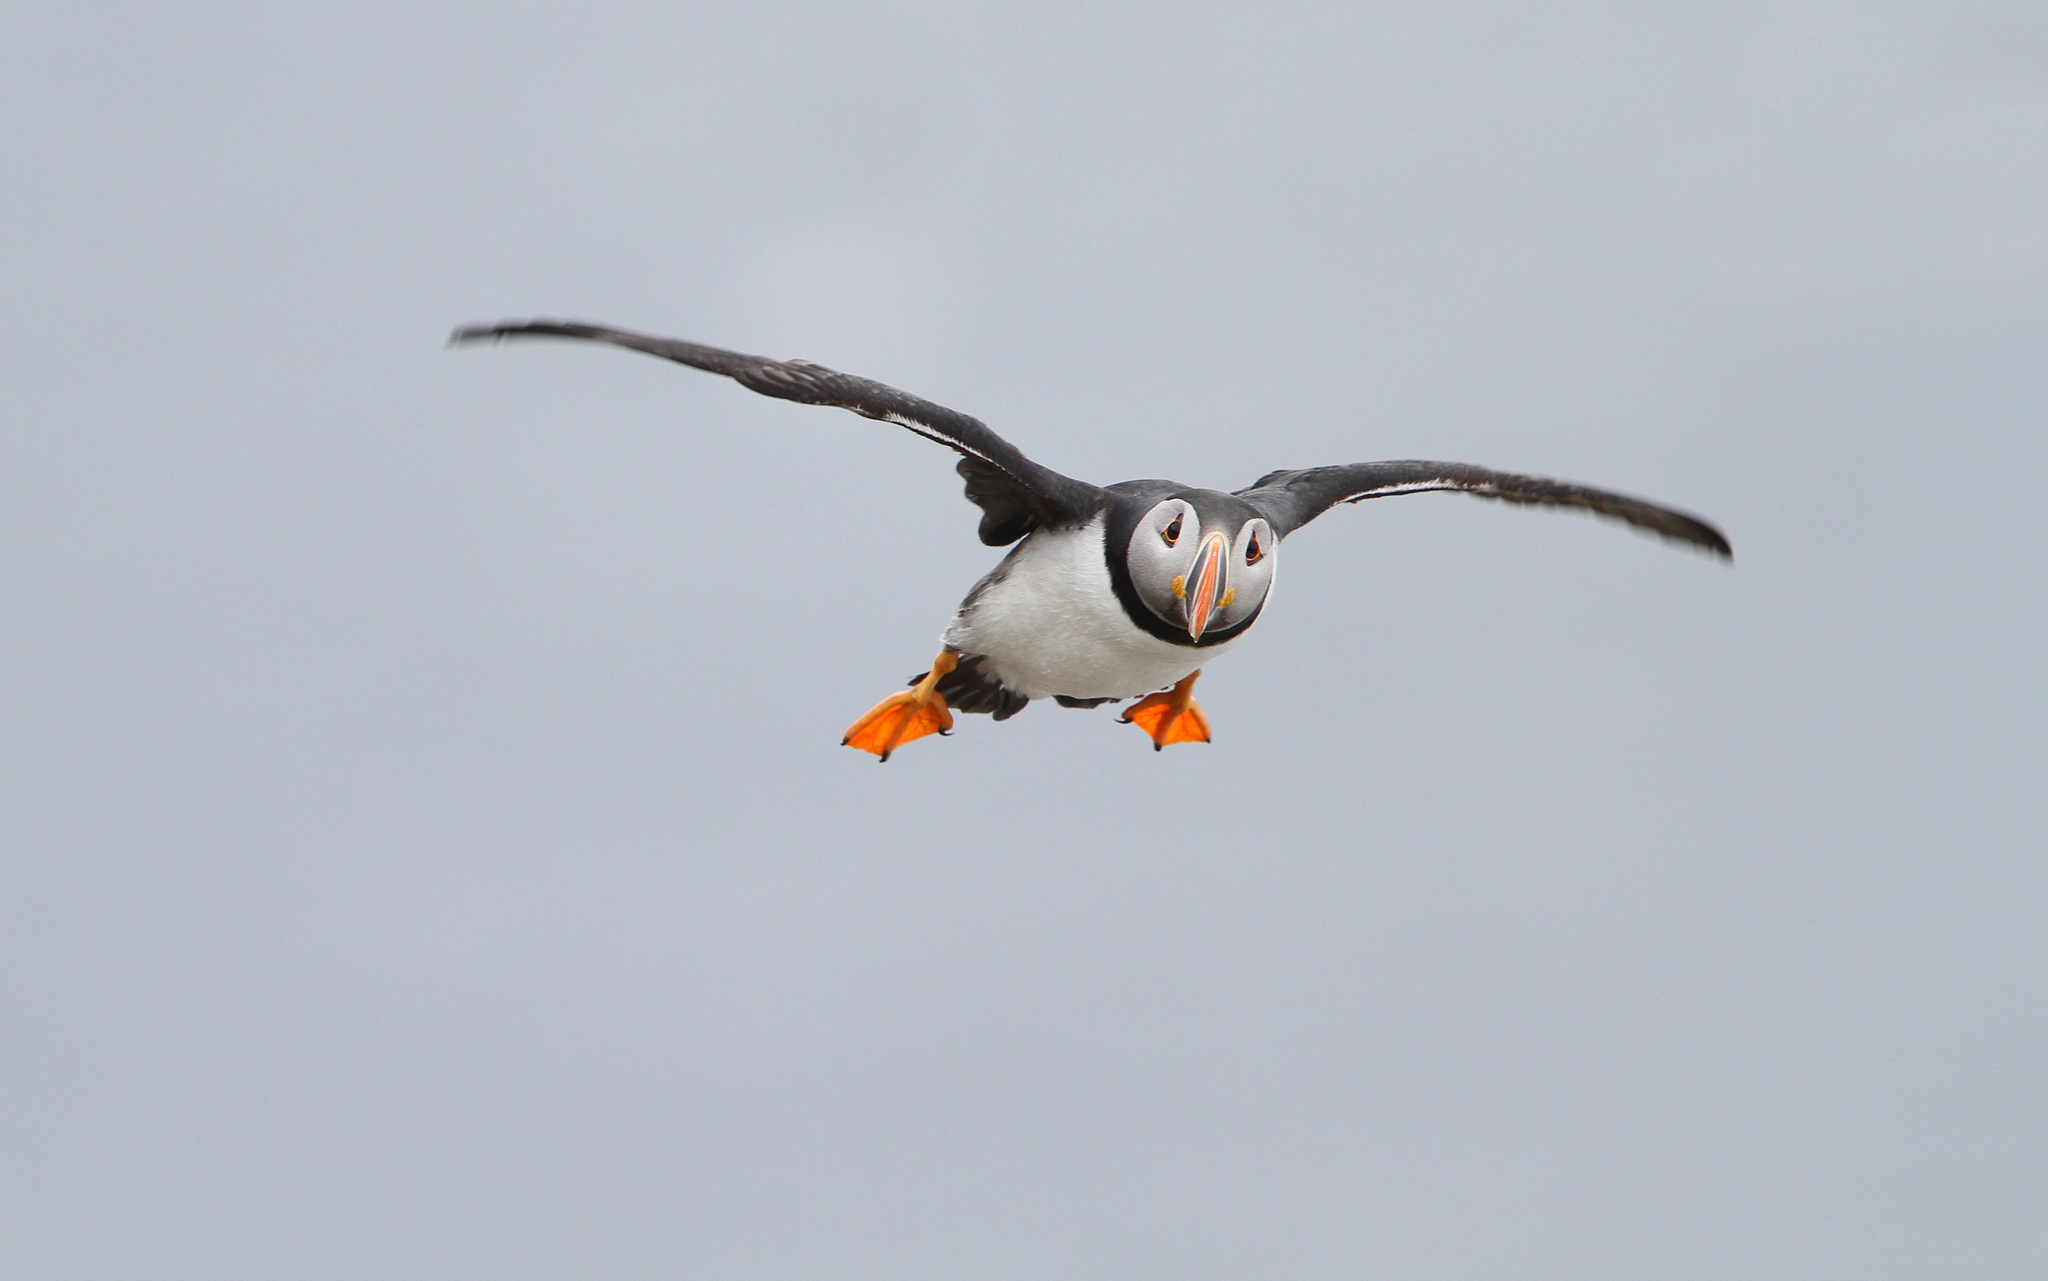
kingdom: Animalia
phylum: Chordata
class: Aves
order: Charadriiformes
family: Alcidae
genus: Fratercula
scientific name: Fratercula arctica
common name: Atlantic puffin
